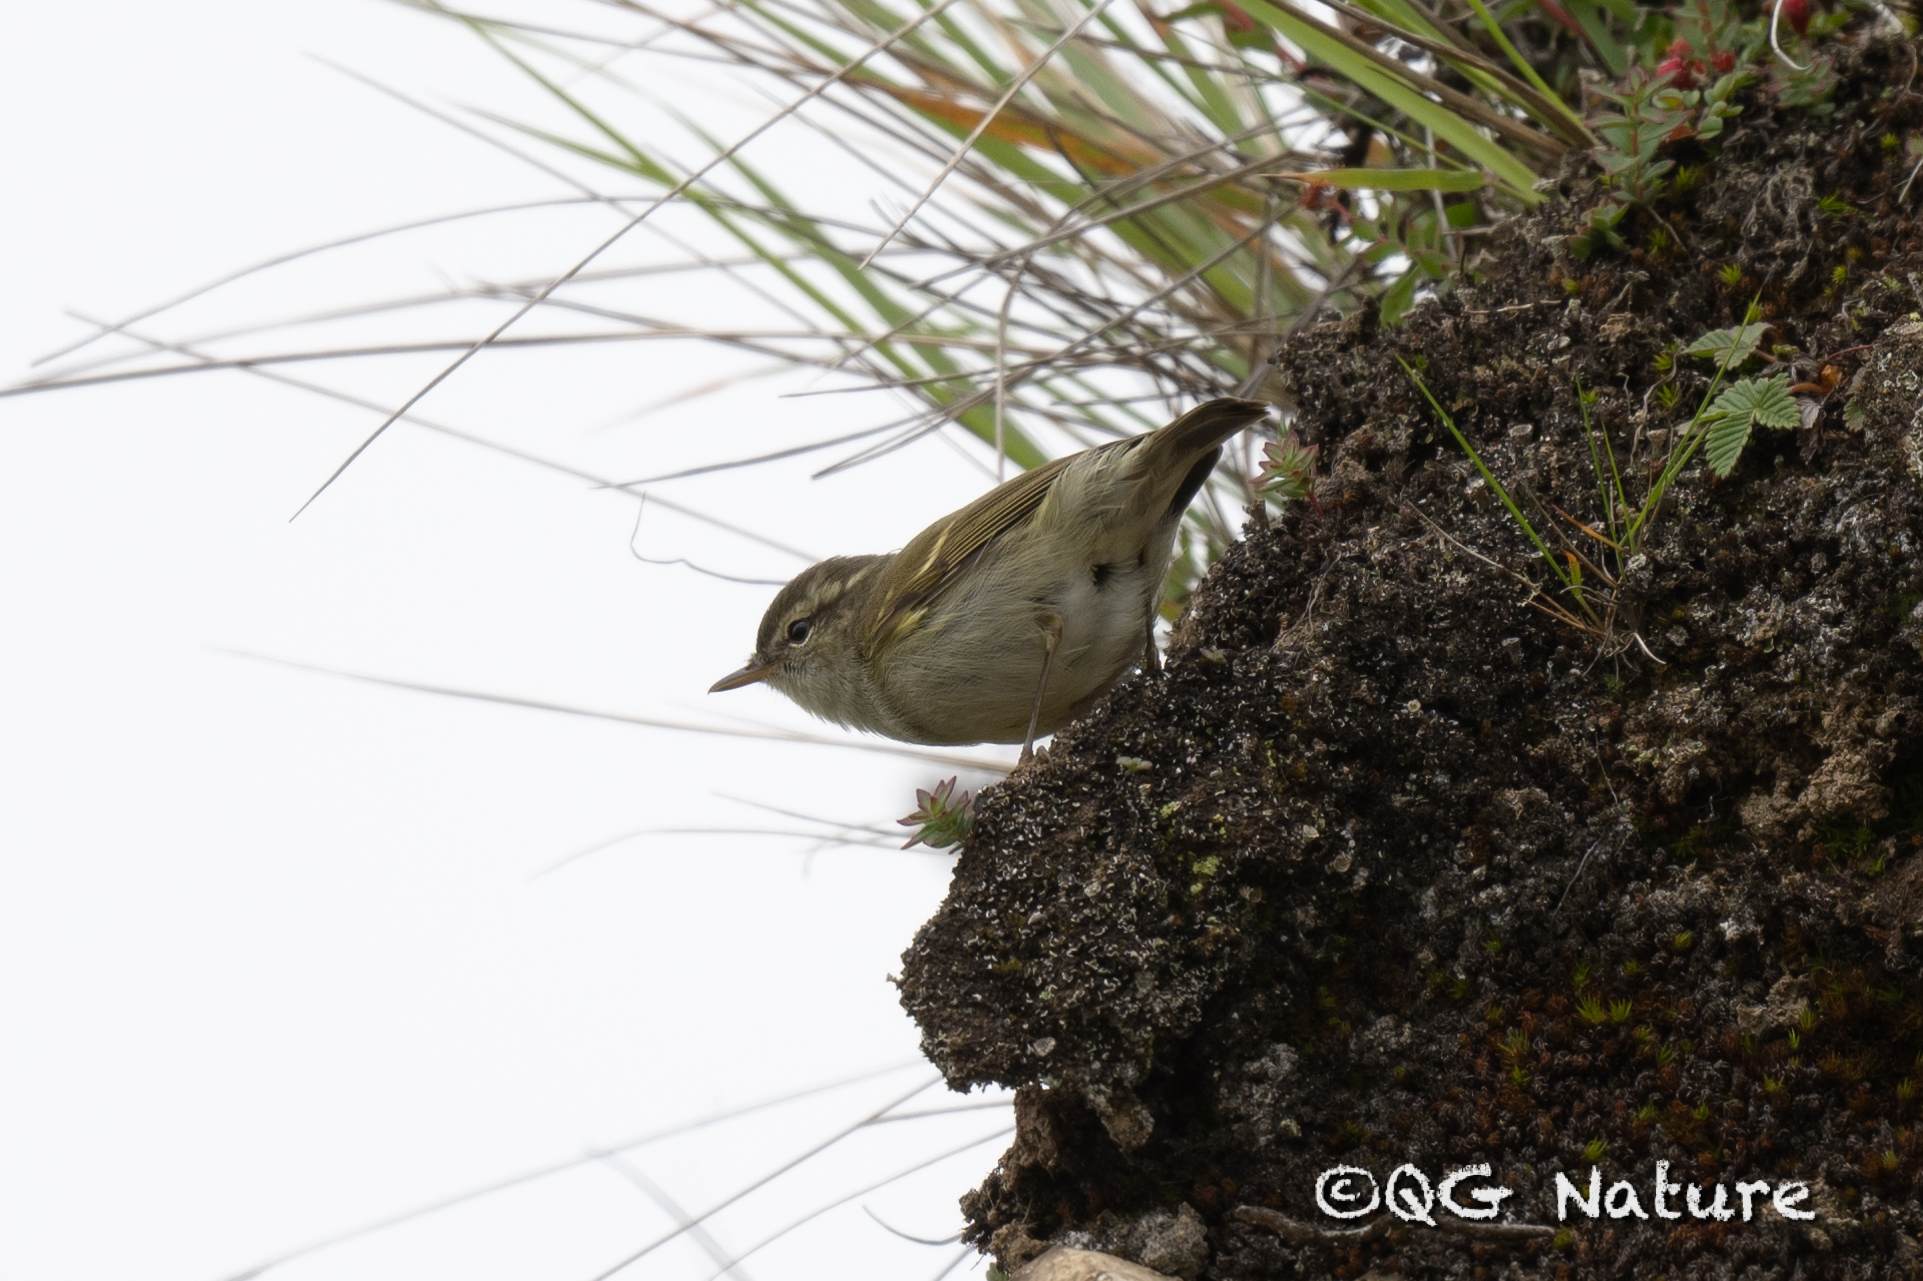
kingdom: Animalia
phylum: Chordata
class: Aves
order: Passeriformes
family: Phylloscopidae
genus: Phylloscopus
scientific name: Phylloscopus trochiloides
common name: Greenish warbler
